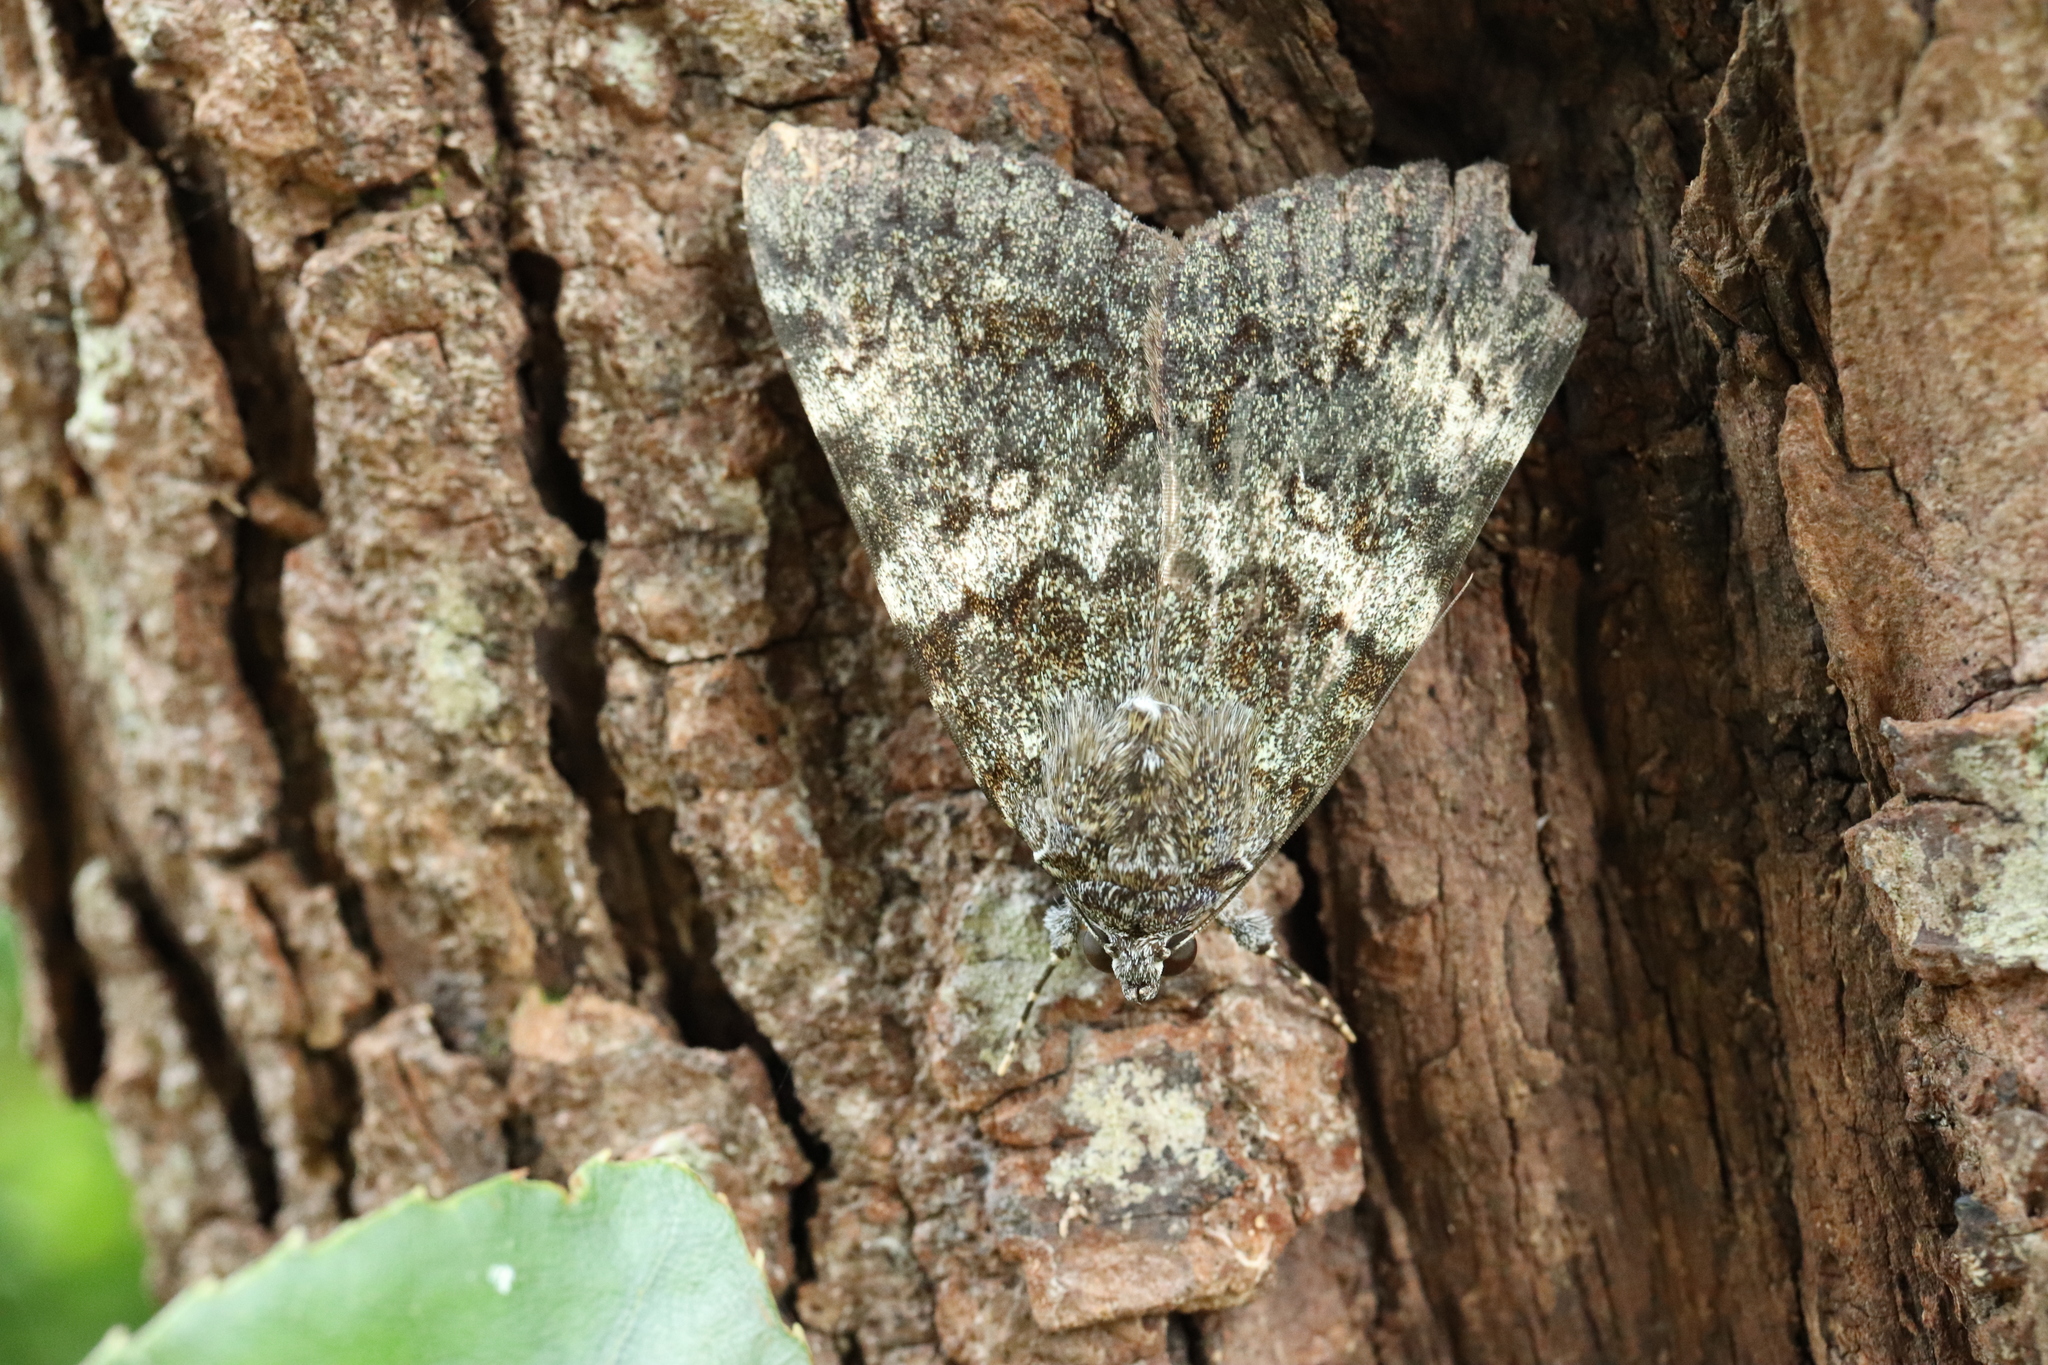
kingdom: Animalia
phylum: Arthropoda
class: Insecta
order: Lepidoptera
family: Erebidae
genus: Catocala
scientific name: Catocala kuangtungensis
